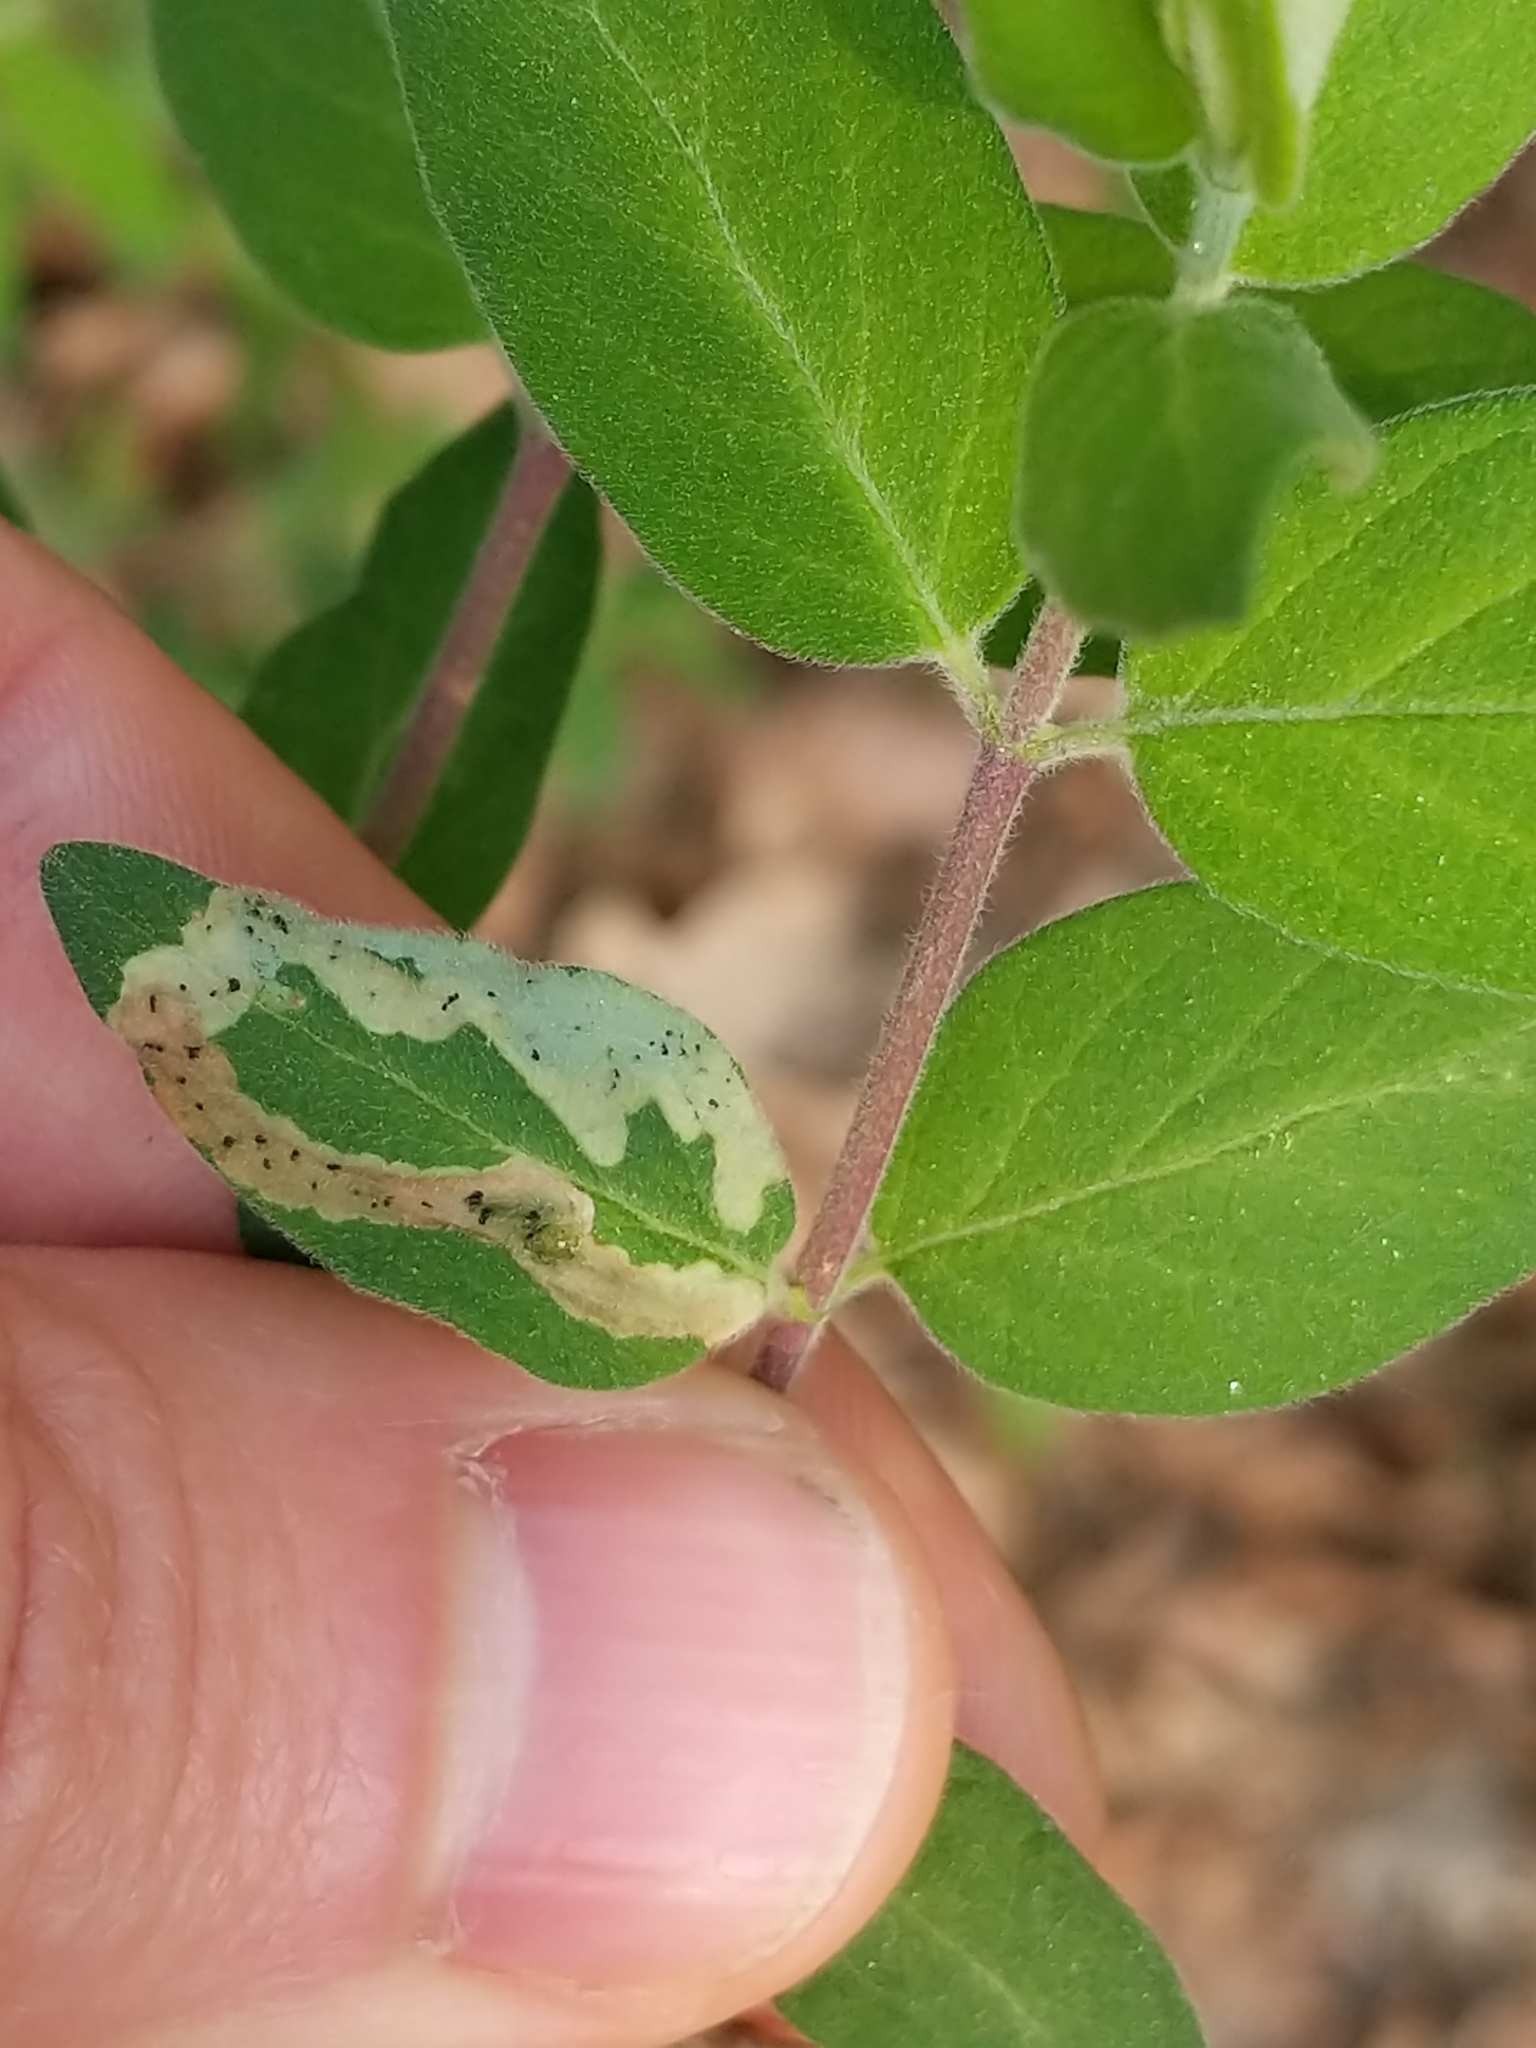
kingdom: Animalia
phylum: Arthropoda
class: Insecta
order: Diptera
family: Agromyzidae
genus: Aulagromyza
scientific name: Aulagromyza cornigera
